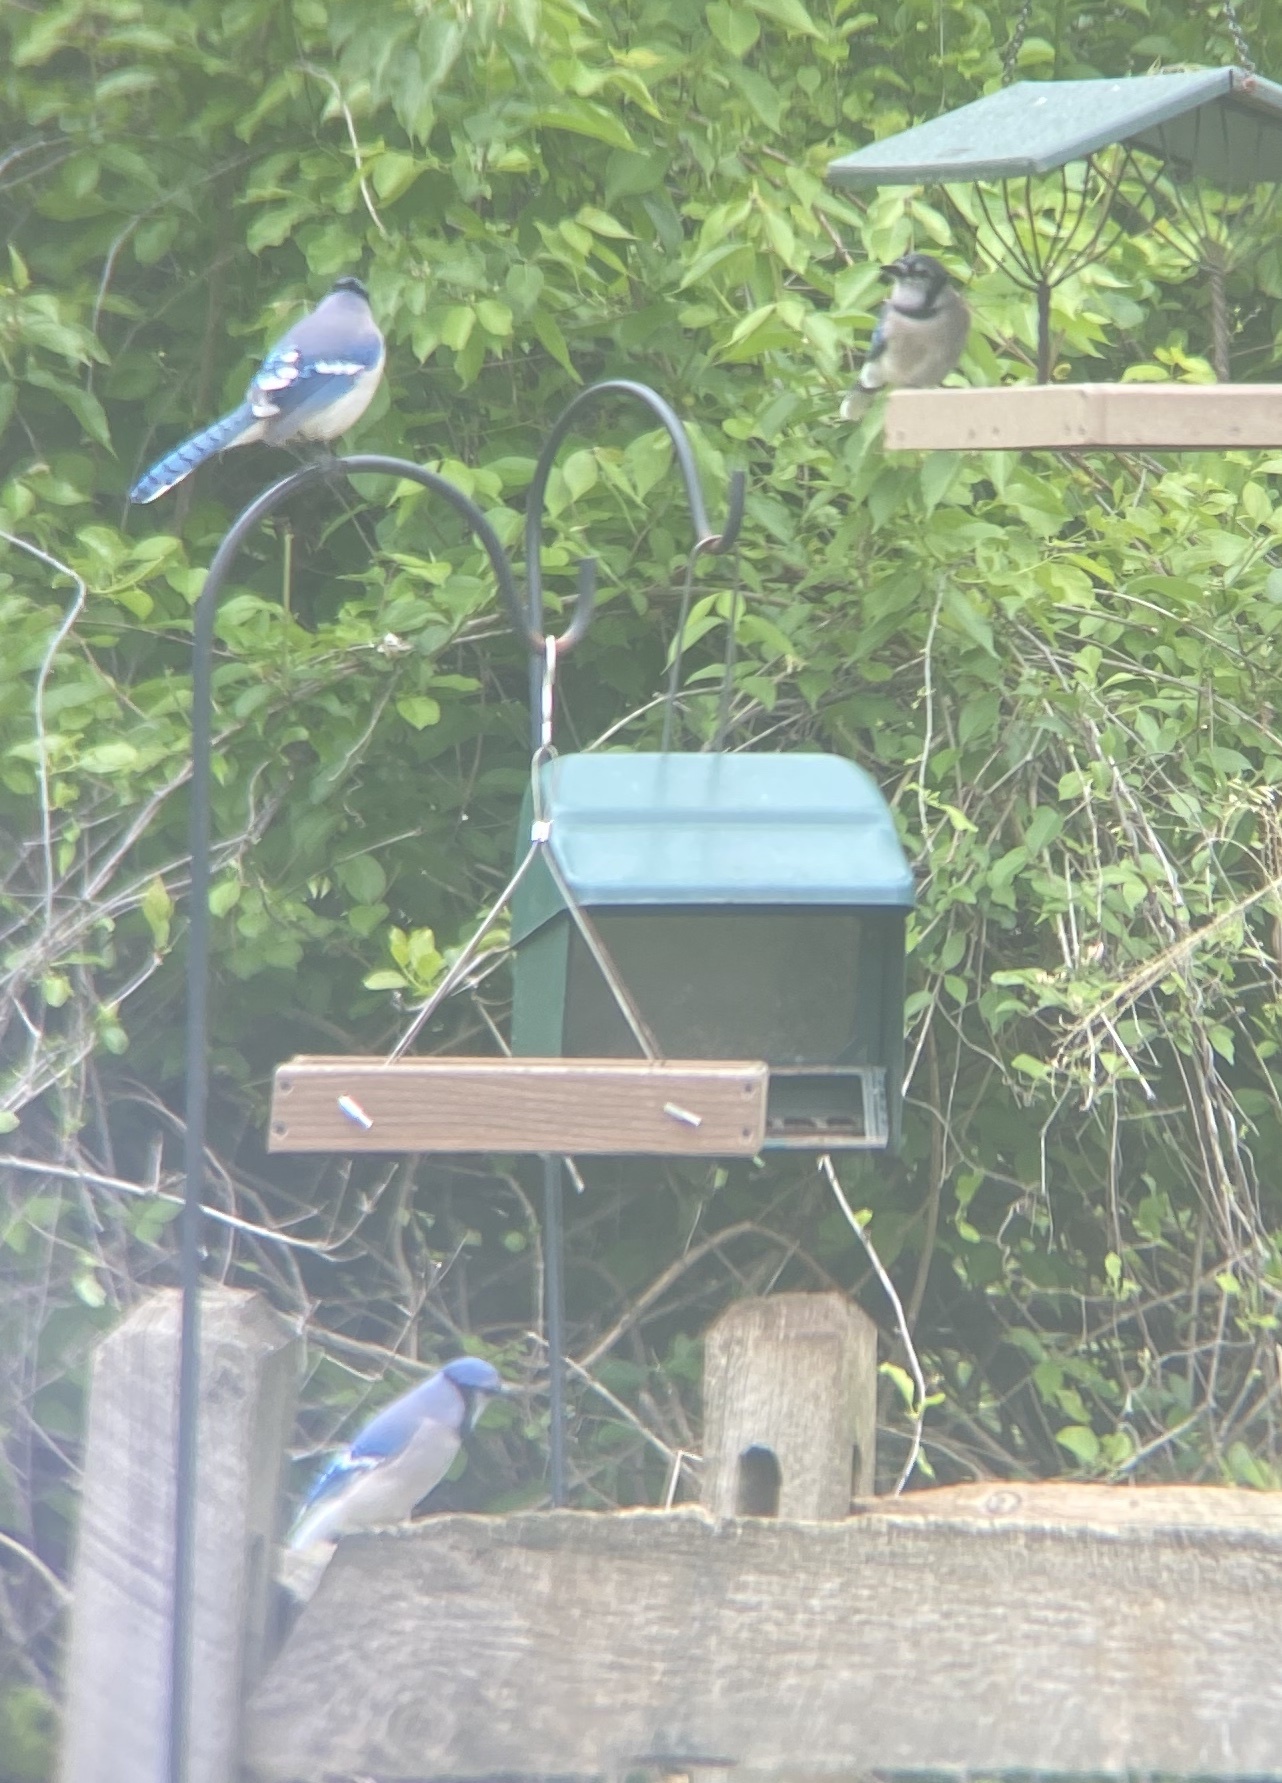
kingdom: Animalia
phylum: Chordata
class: Aves
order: Passeriformes
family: Corvidae
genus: Cyanocitta
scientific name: Cyanocitta cristata
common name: Blue jay
